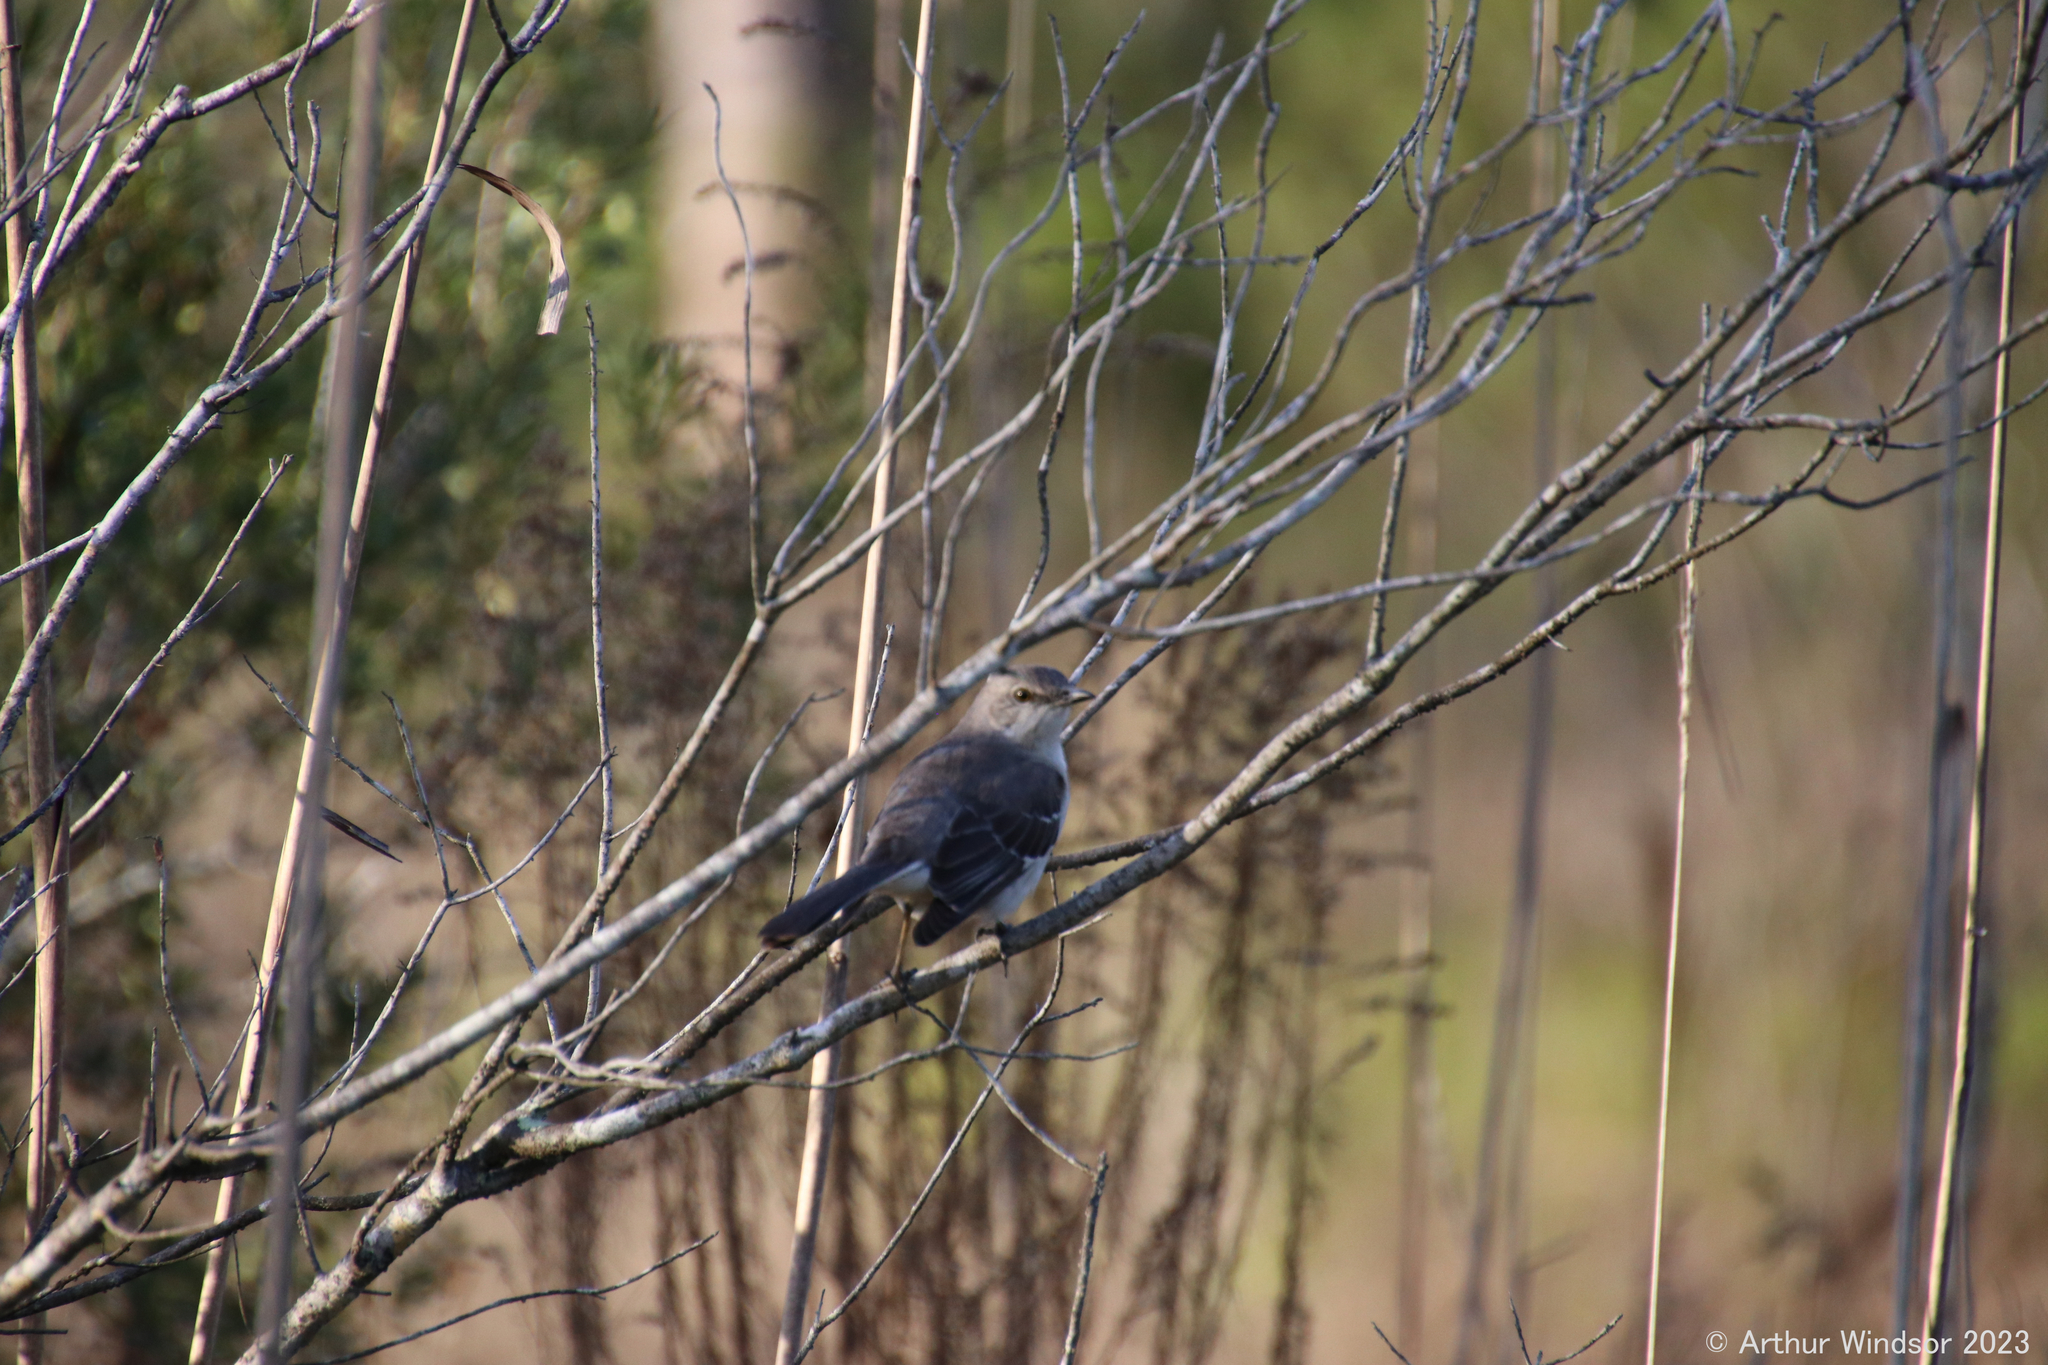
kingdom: Animalia
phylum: Chordata
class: Aves
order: Passeriformes
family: Mimidae
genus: Mimus
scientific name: Mimus polyglottos
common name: Northern mockingbird
